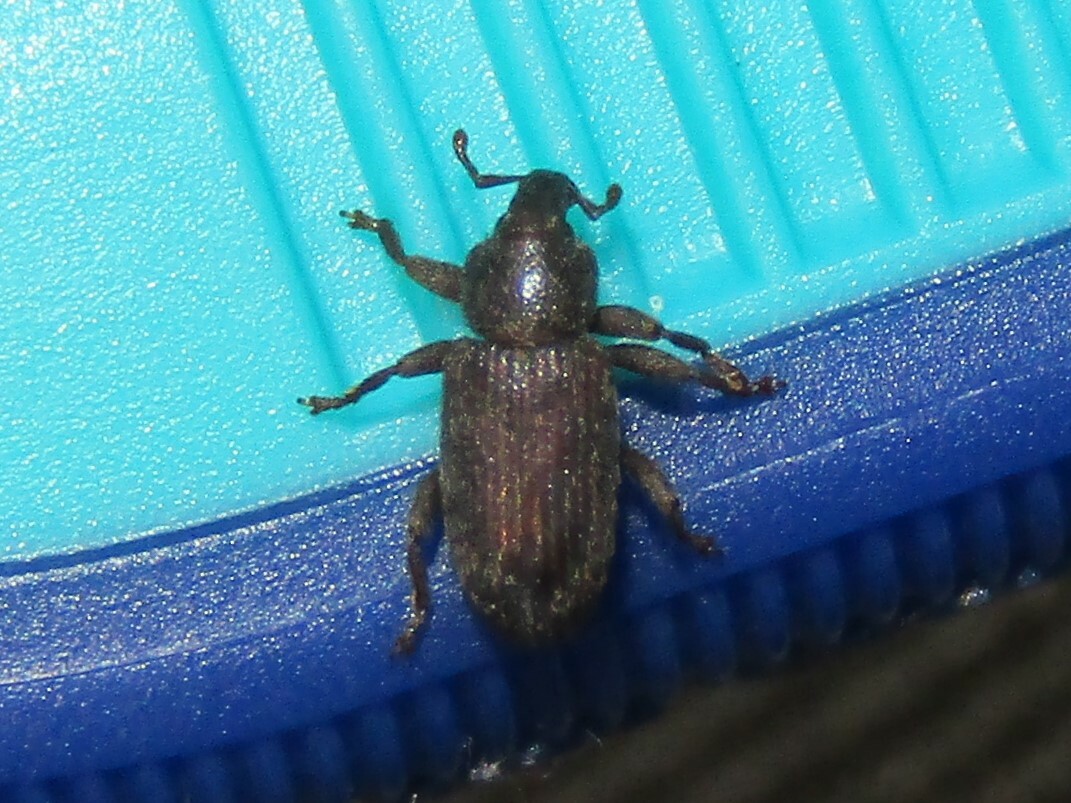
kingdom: Animalia
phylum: Arthropoda
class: Insecta
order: Coleoptera
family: Curculionidae
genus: Hormops
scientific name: Hormops abducens
